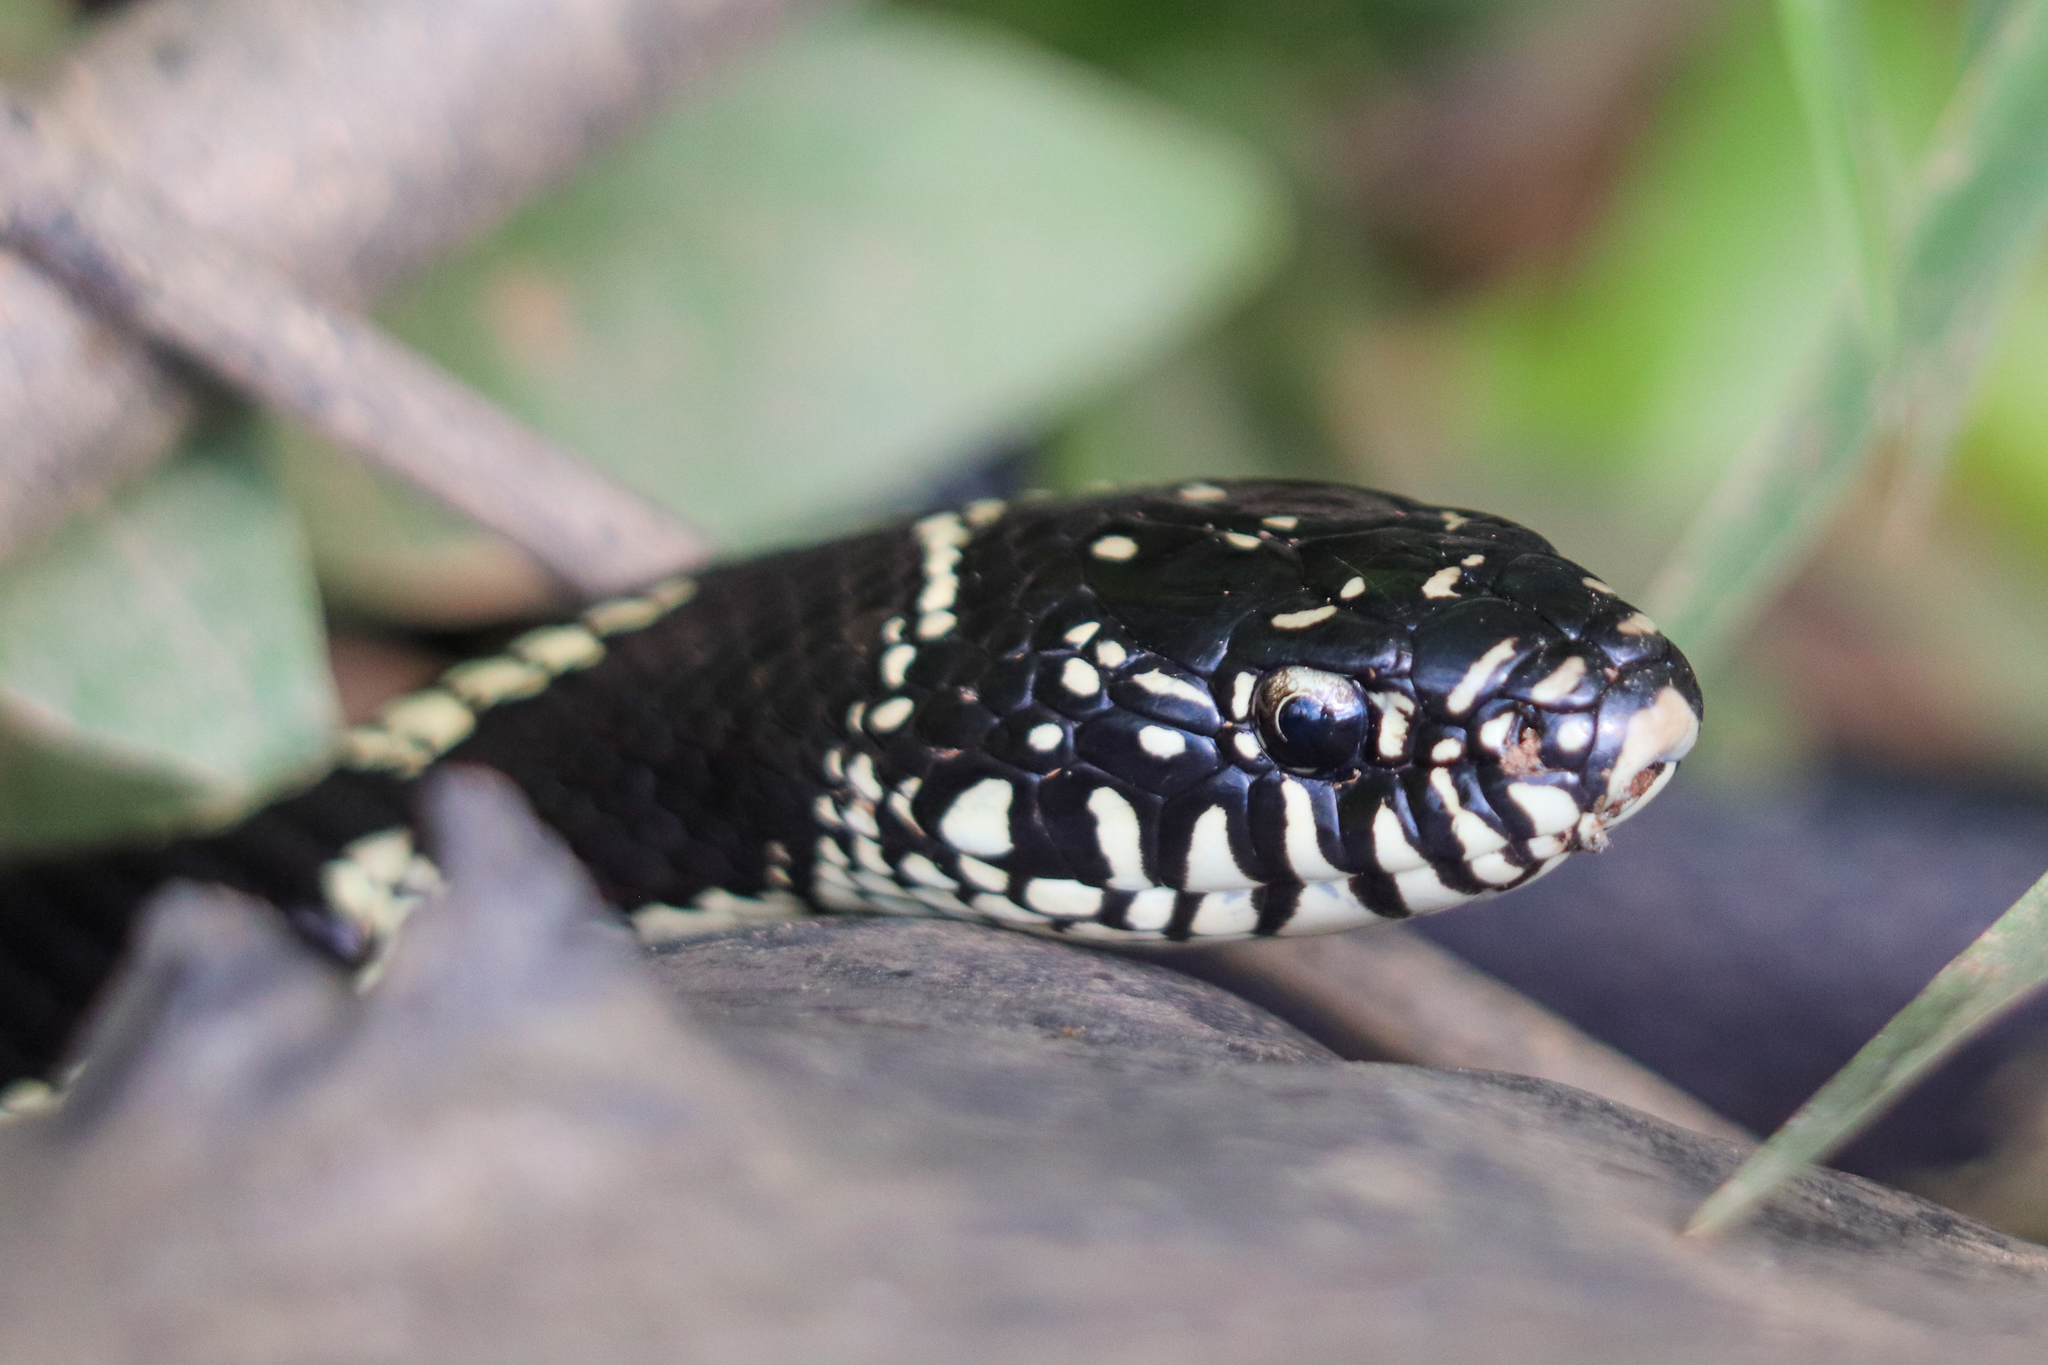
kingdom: Animalia
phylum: Chordata
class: Squamata
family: Colubridae
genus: Lampropeltis
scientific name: Lampropeltis getula
